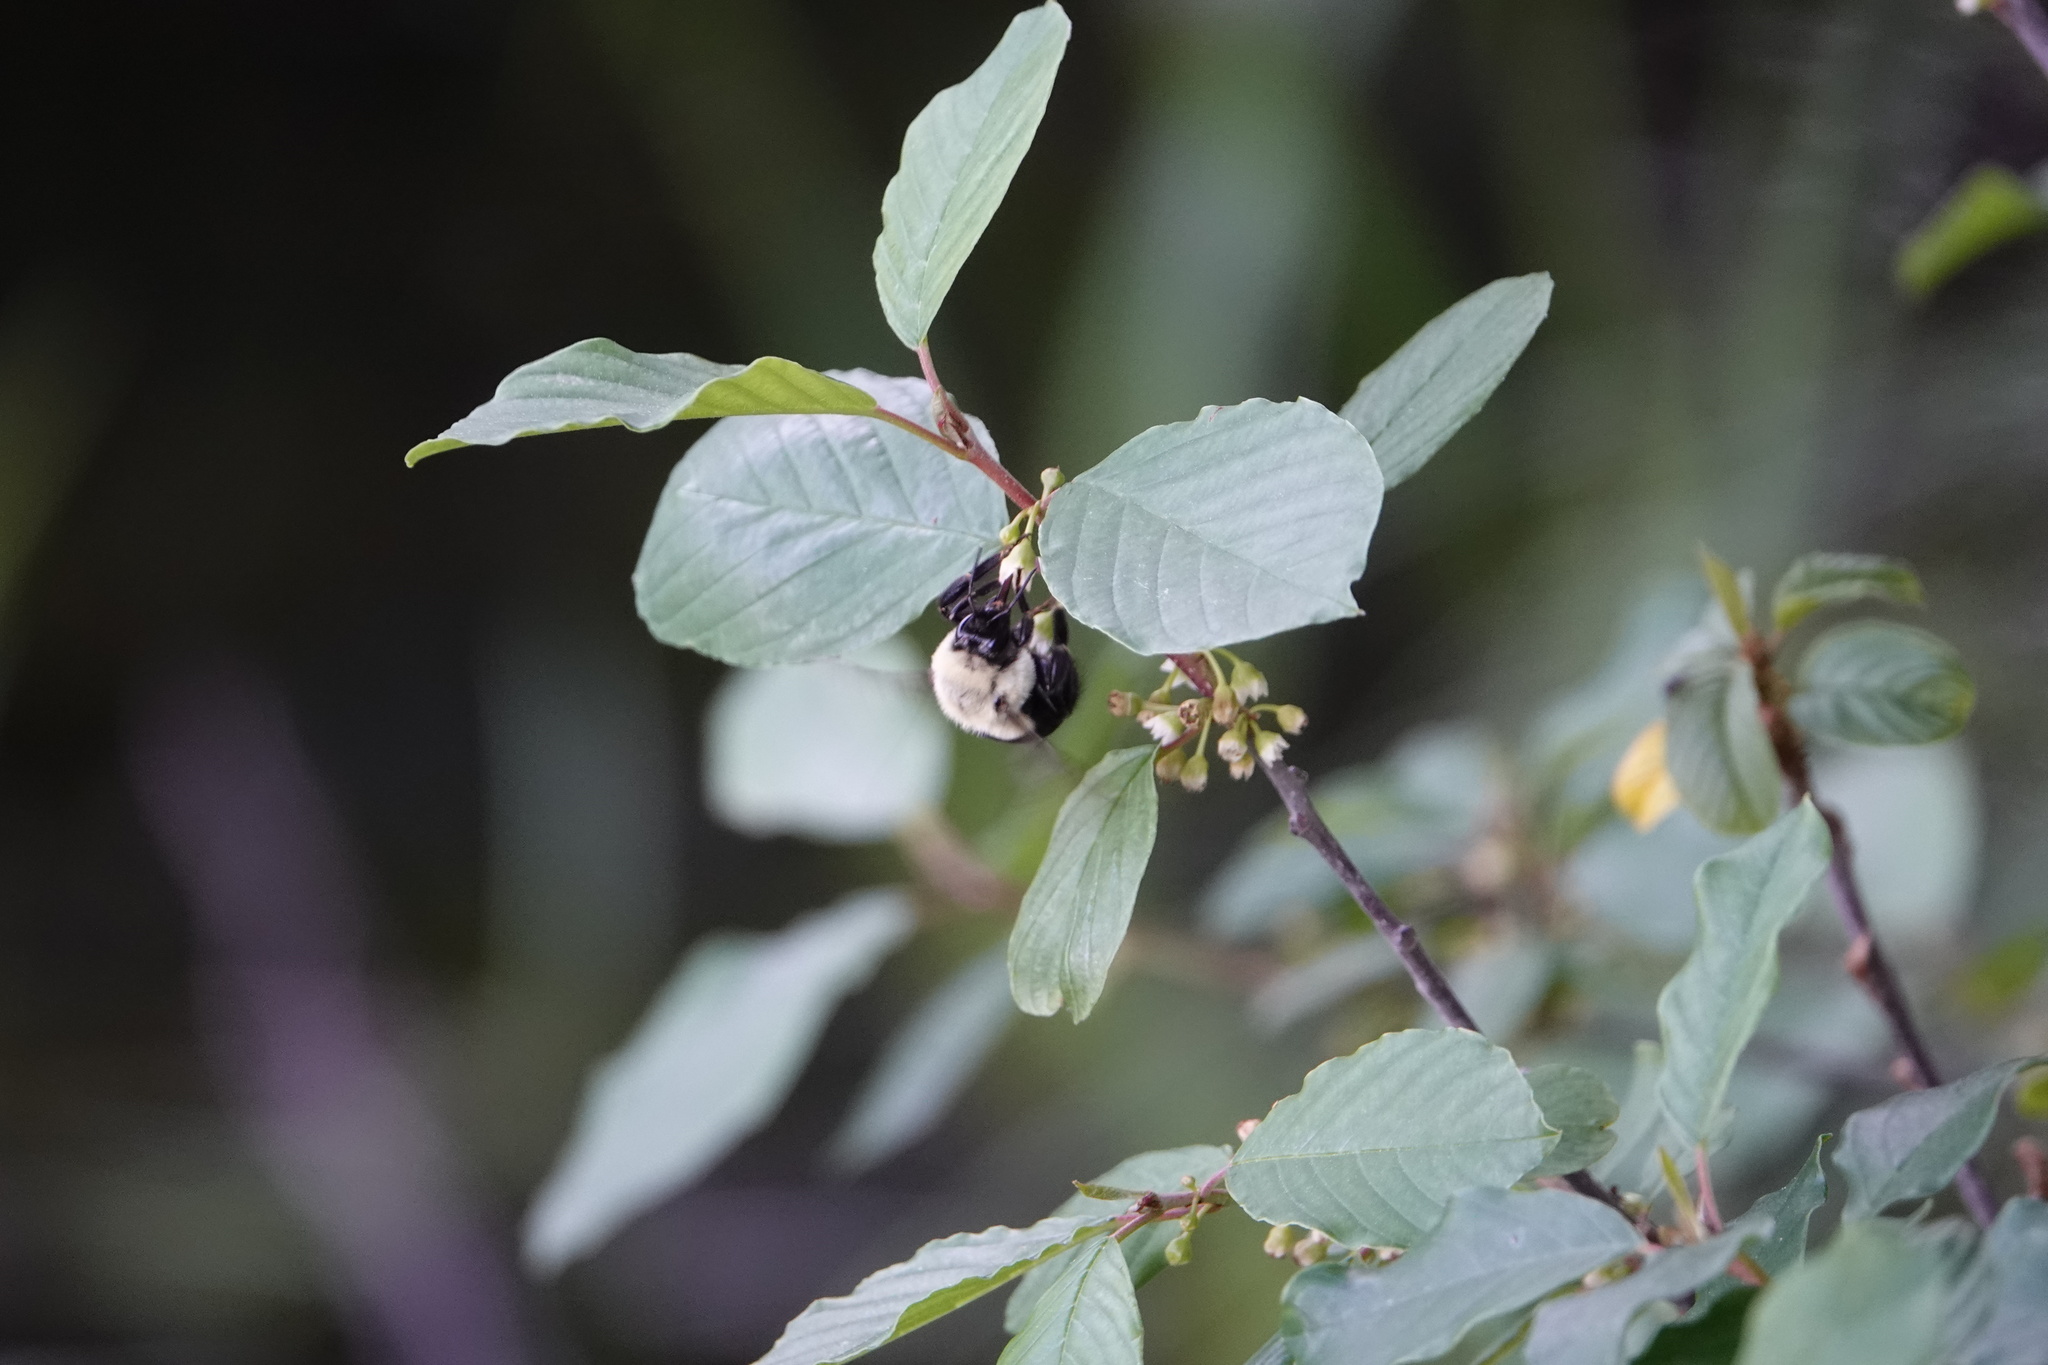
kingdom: Animalia
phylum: Arthropoda
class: Insecta
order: Hymenoptera
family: Apidae
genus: Bombus
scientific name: Bombus impatiens
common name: Common eastern bumble bee
